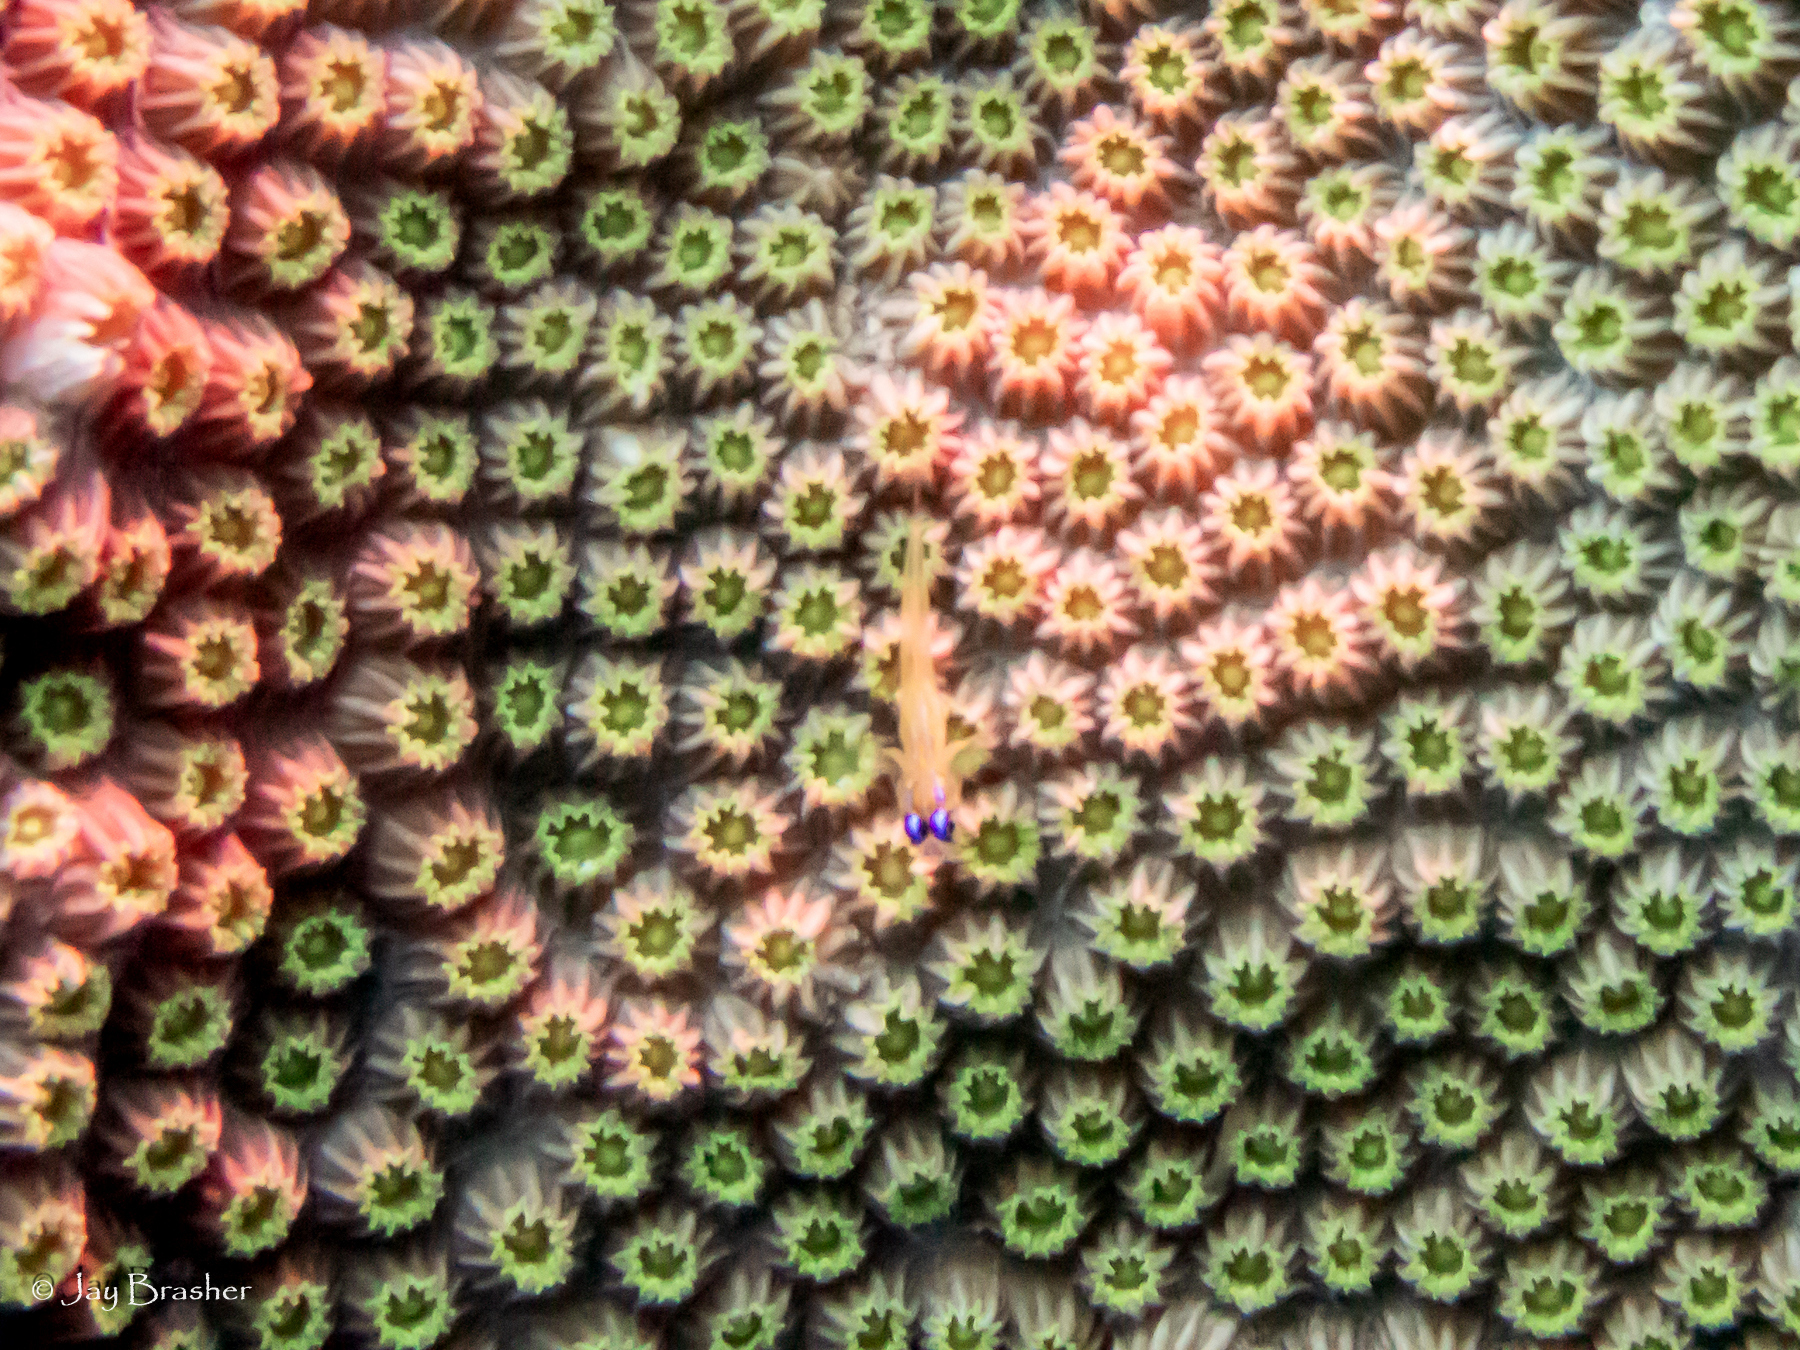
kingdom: Animalia
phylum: Chordata
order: Perciformes
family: Gobiidae
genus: Coryphopterus
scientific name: Coryphopterus lipernes
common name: Peppermint goby
